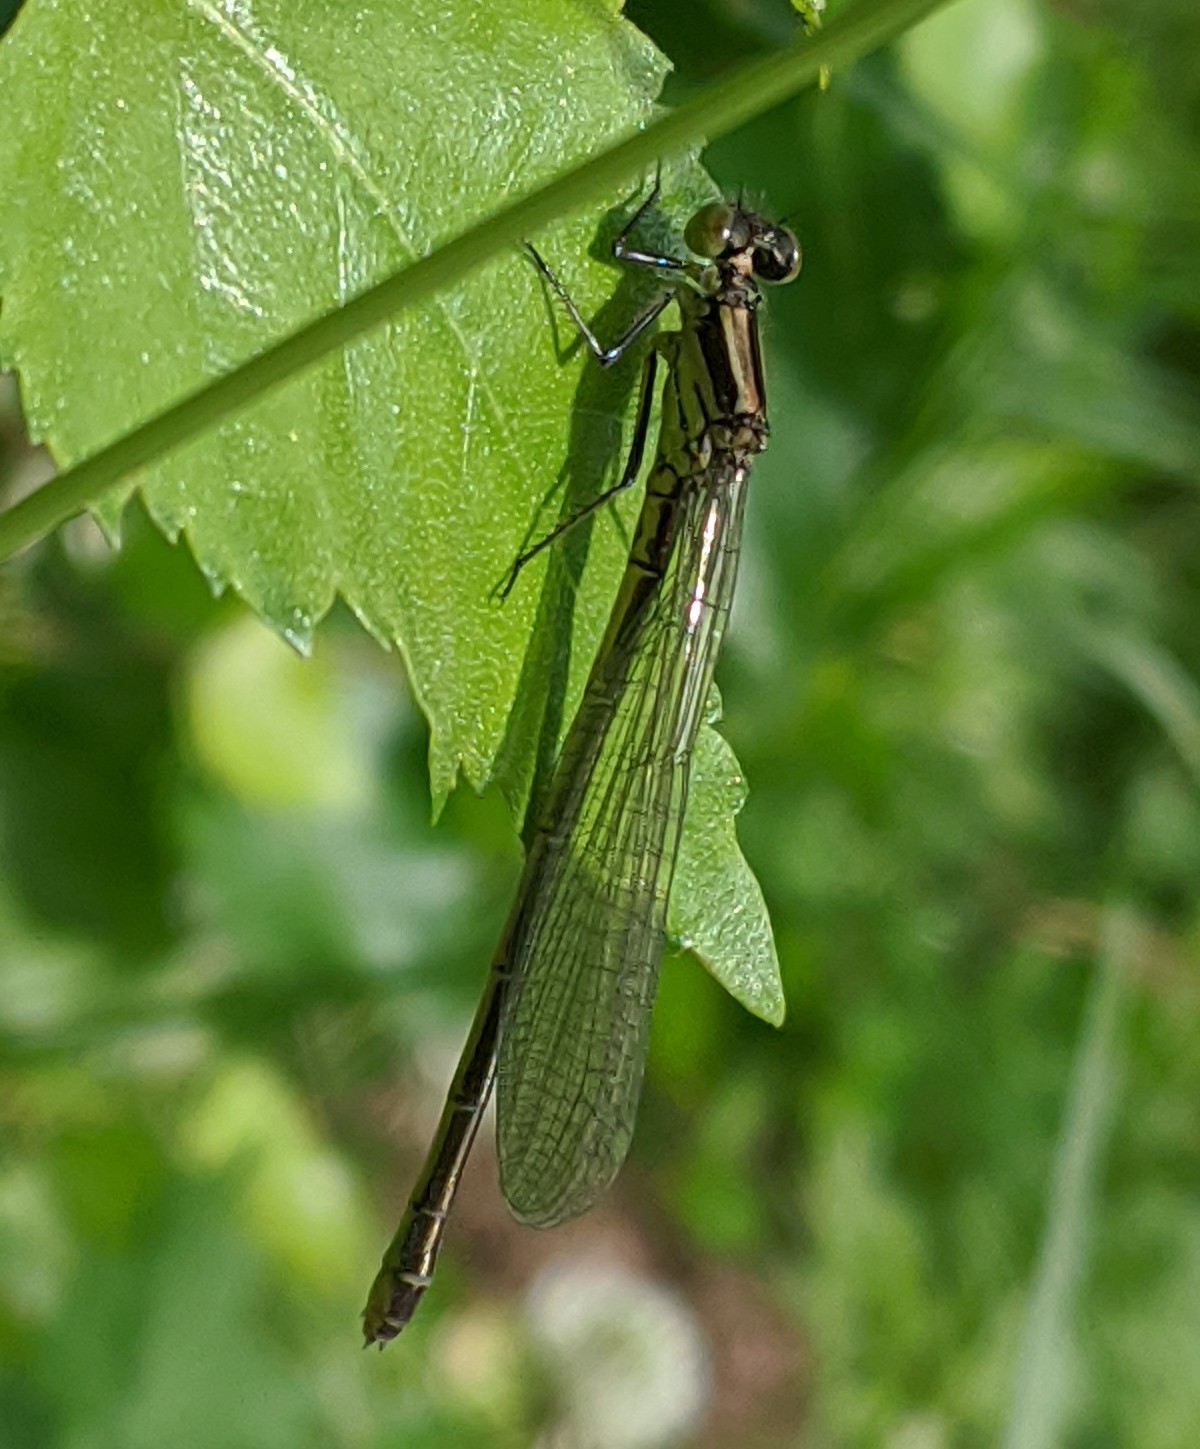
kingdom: Animalia
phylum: Arthropoda
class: Insecta
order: Odonata
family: Coenagrionidae
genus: Erythromma
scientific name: Erythromma najas
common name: Red-eyed damselfly
